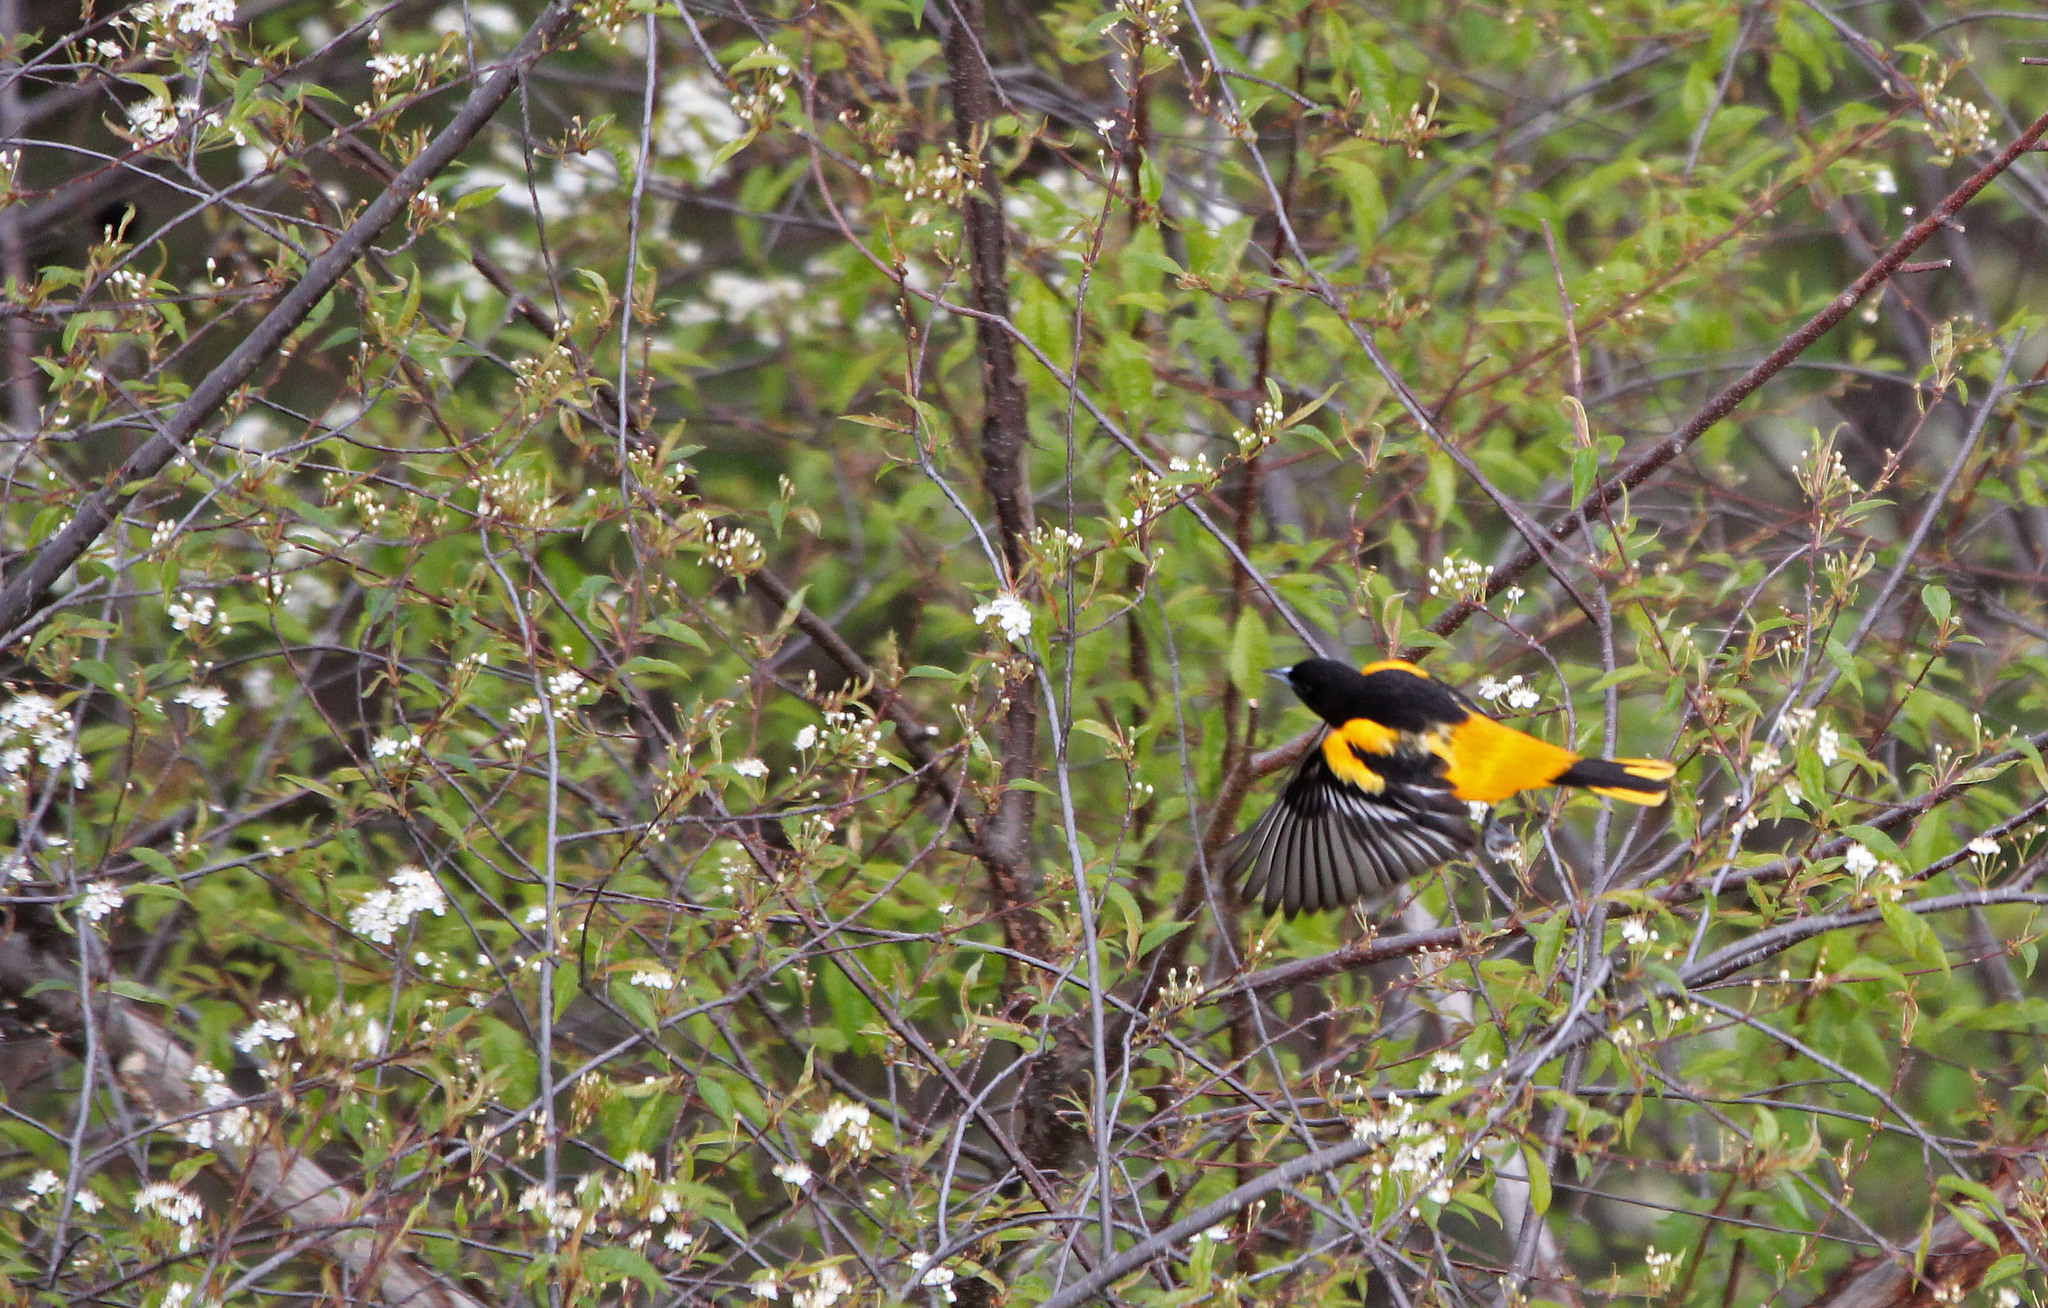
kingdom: Animalia
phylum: Chordata
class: Aves
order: Passeriformes
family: Icteridae
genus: Icterus
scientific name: Icterus galbula
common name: Baltimore oriole
